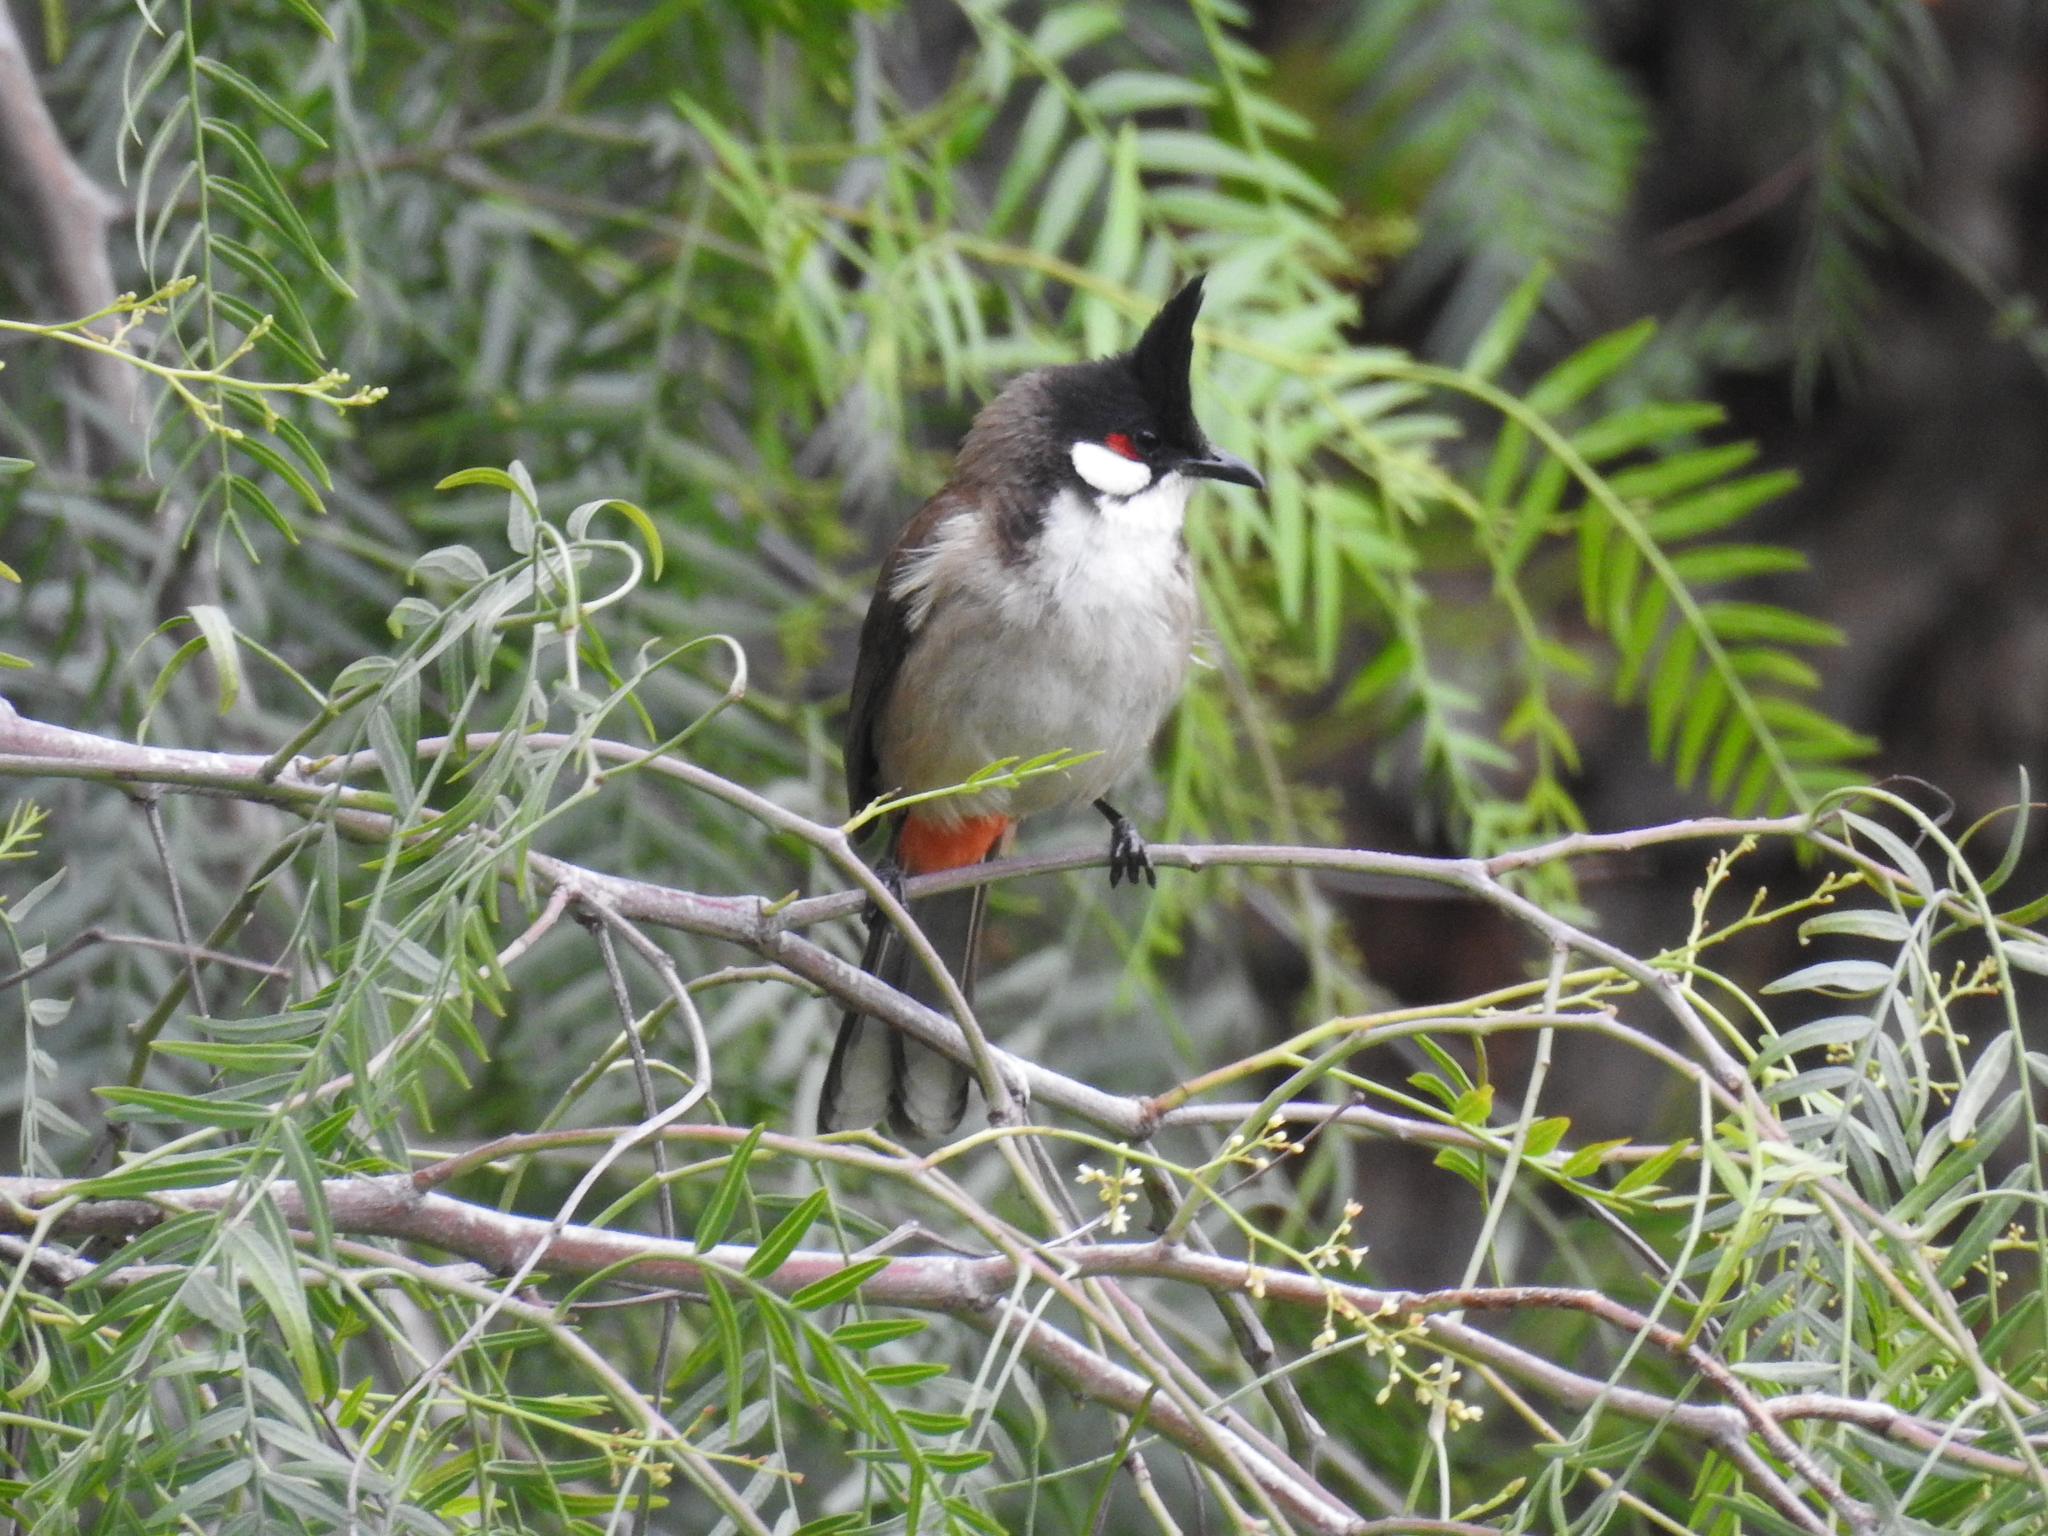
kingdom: Animalia
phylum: Chordata
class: Aves
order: Passeriformes
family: Pycnonotidae
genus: Pycnonotus
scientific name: Pycnonotus jocosus
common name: Red-whiskered bulbul
